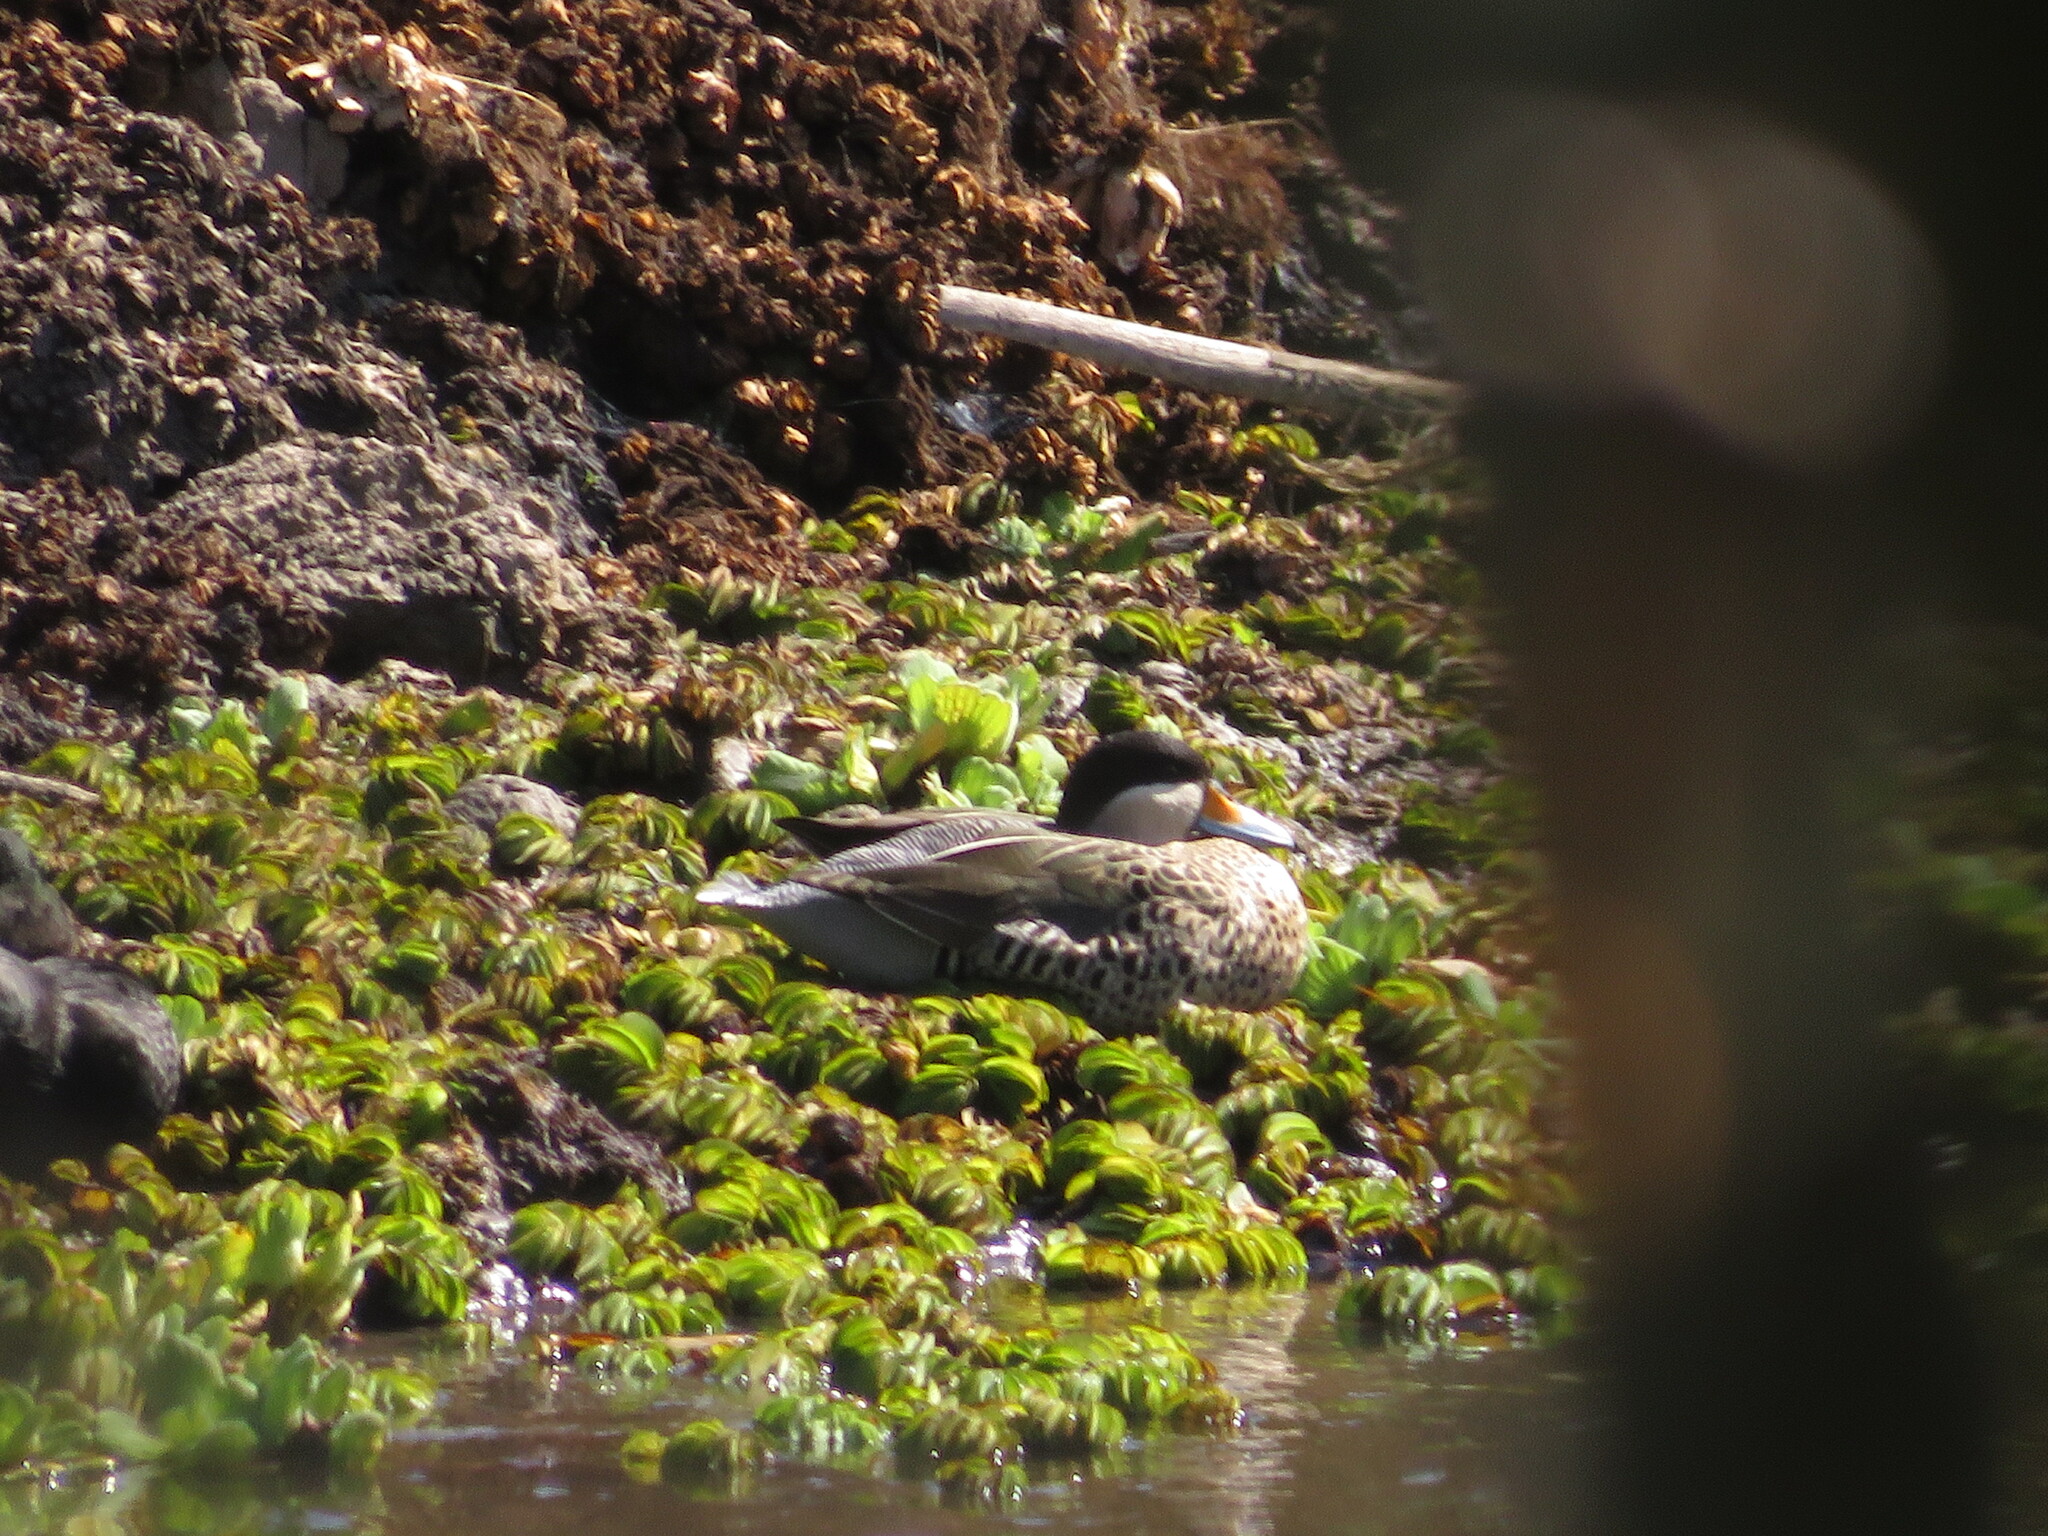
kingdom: Animalia
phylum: Chordata
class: Aves
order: Anseriformes
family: Anatidae
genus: Spatula
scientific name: Spatula versicolor
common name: Silver teal
